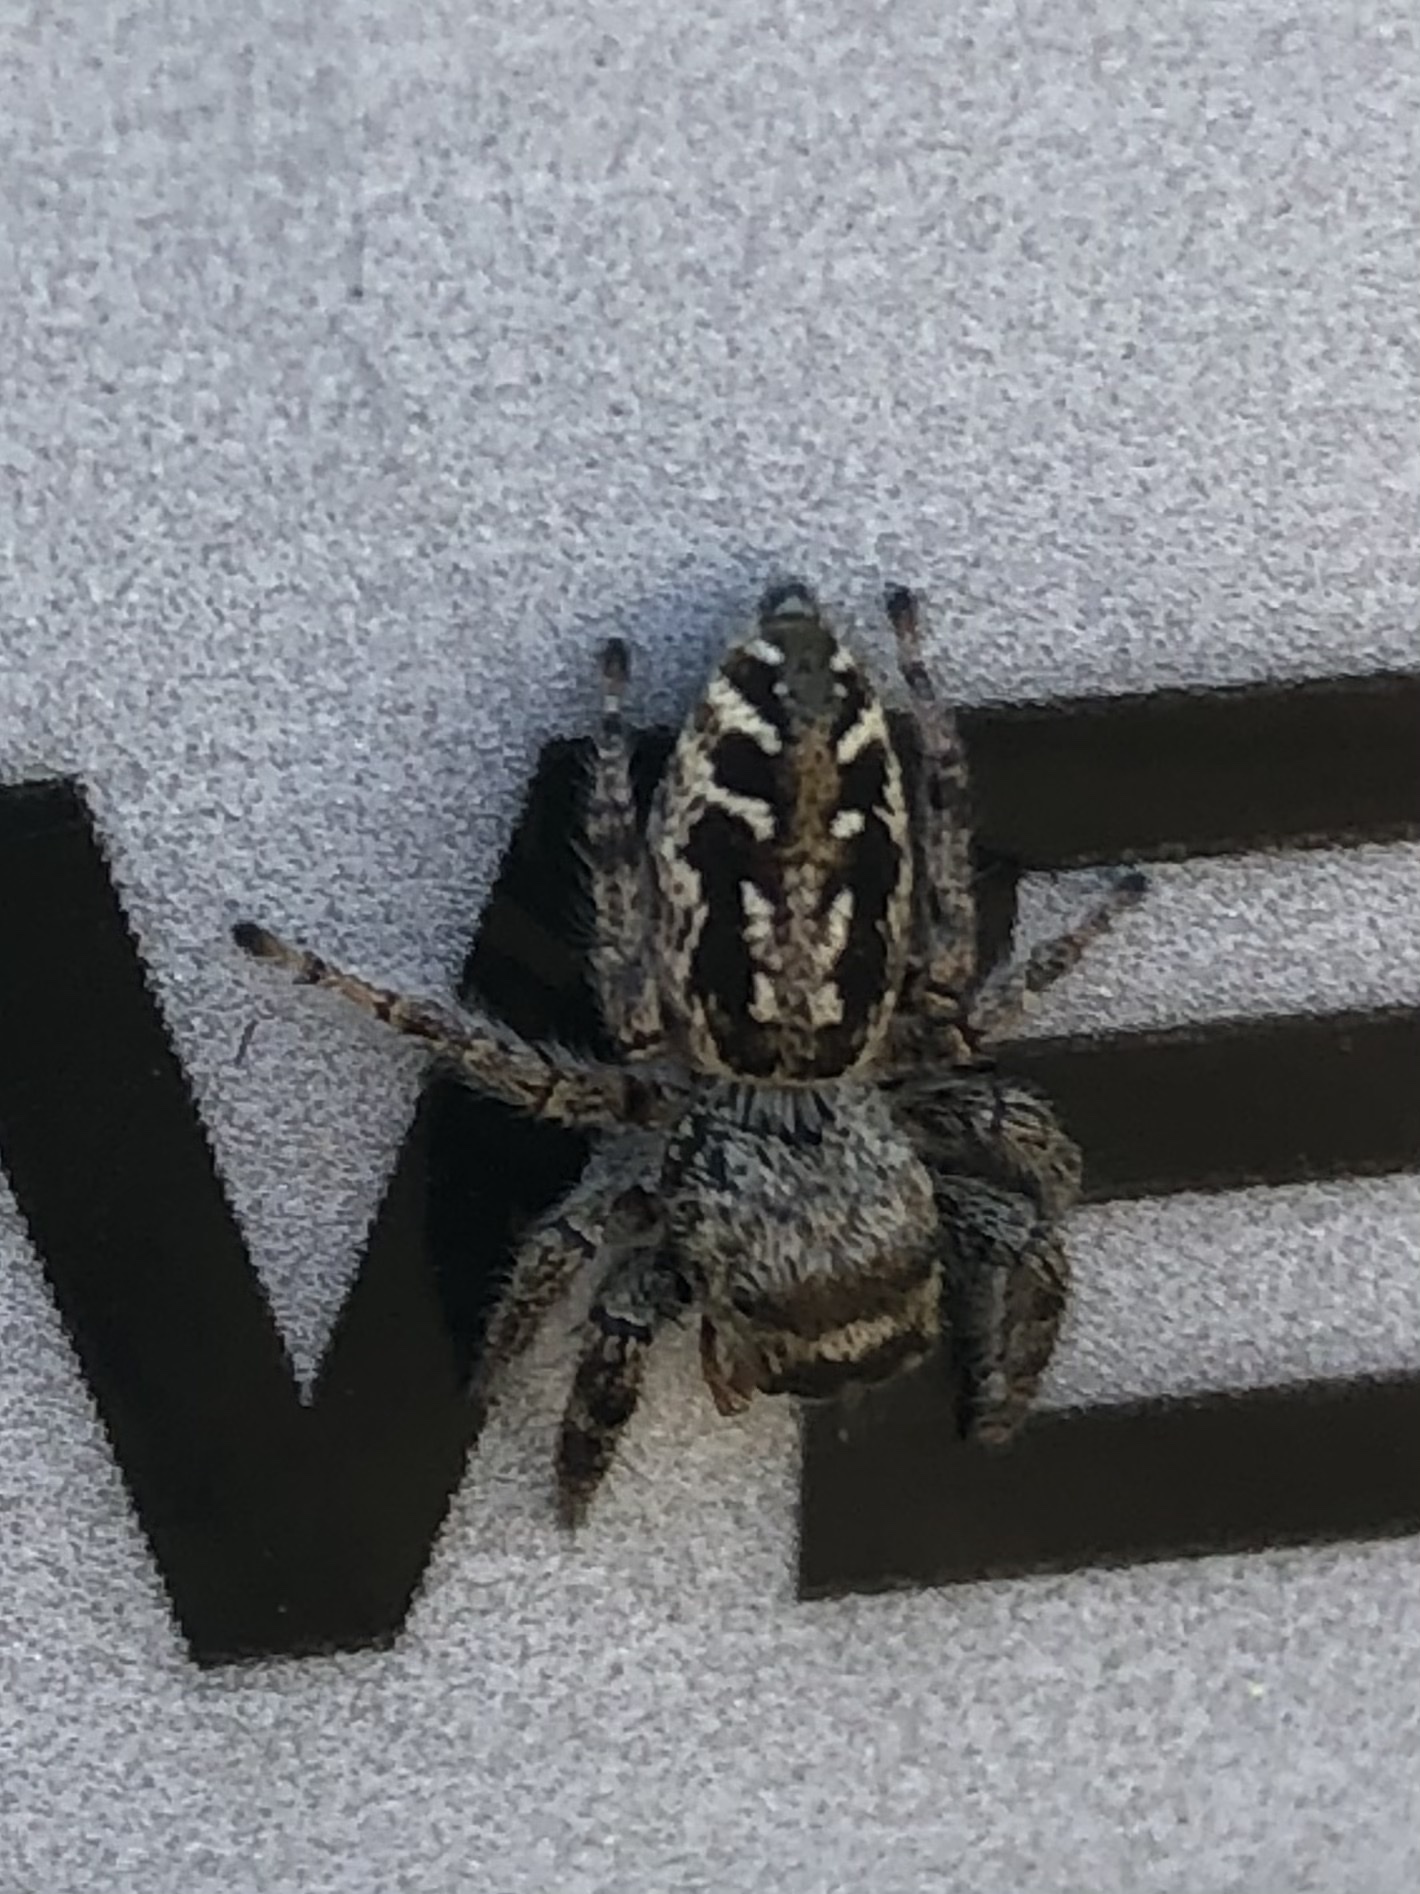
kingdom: Animalia
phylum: Arthropoda
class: Arachnida
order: Araneae
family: Salticidae
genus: Eris
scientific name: Eris militaris
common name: Bronze jumper
